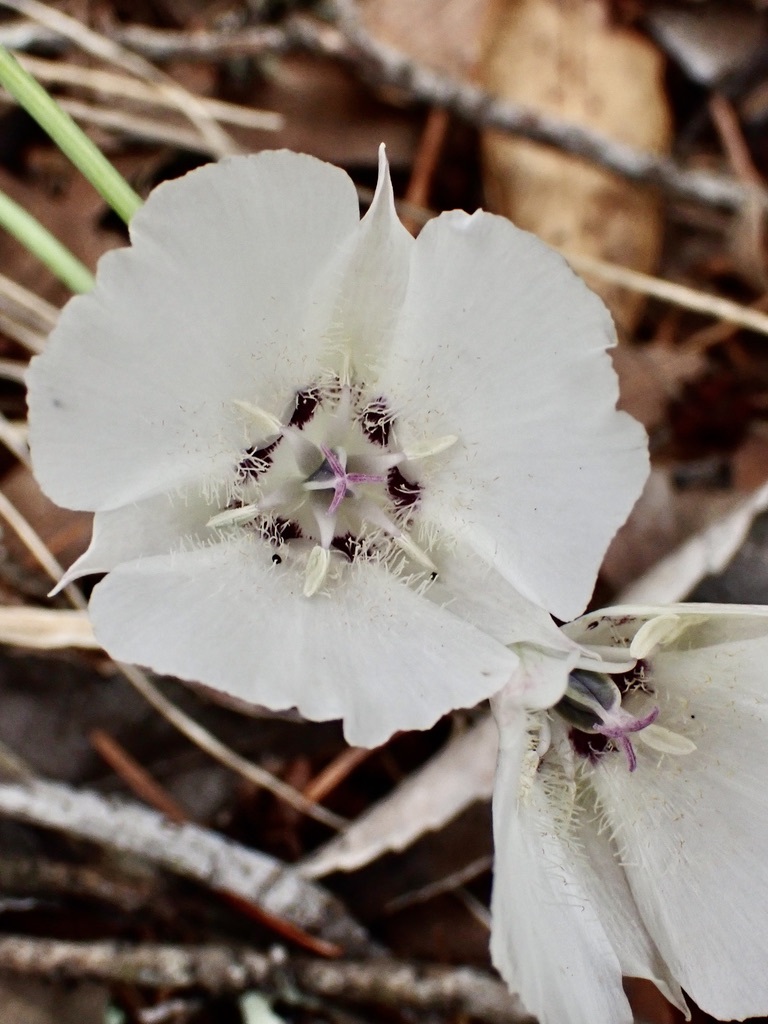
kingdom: Plantae
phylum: Tracheophyta
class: Liliopsida
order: Liliales
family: Liliaceae
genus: Calochortus
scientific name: Calochortus umbellatus
